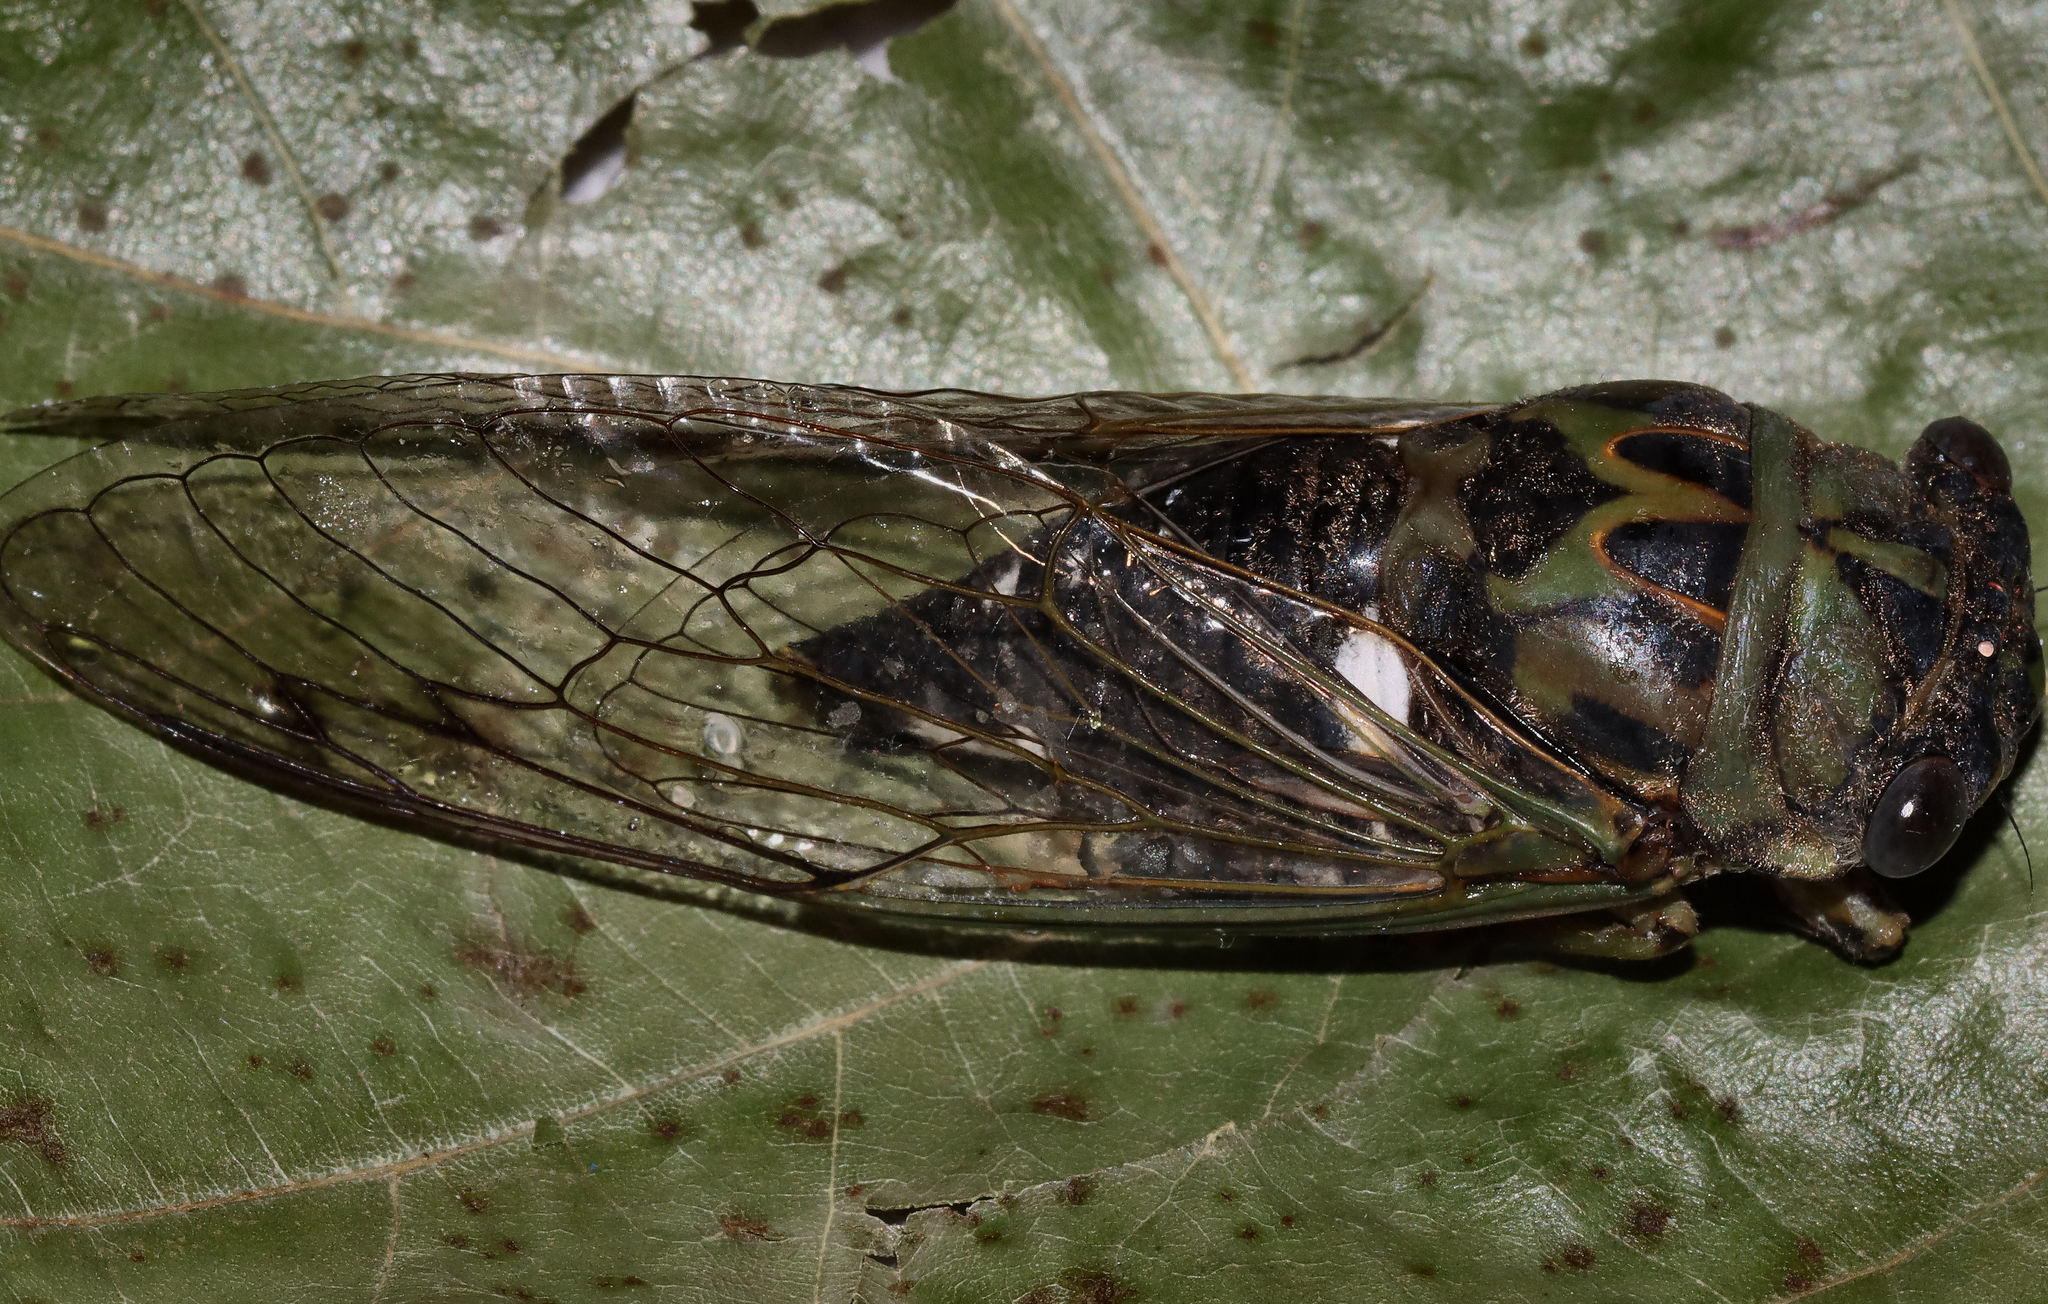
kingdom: Animalia
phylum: Arthropoda
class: Insecta
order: Hemiptera
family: Cicadidae
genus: Neotibicen
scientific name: Neotibicen pruinosus
